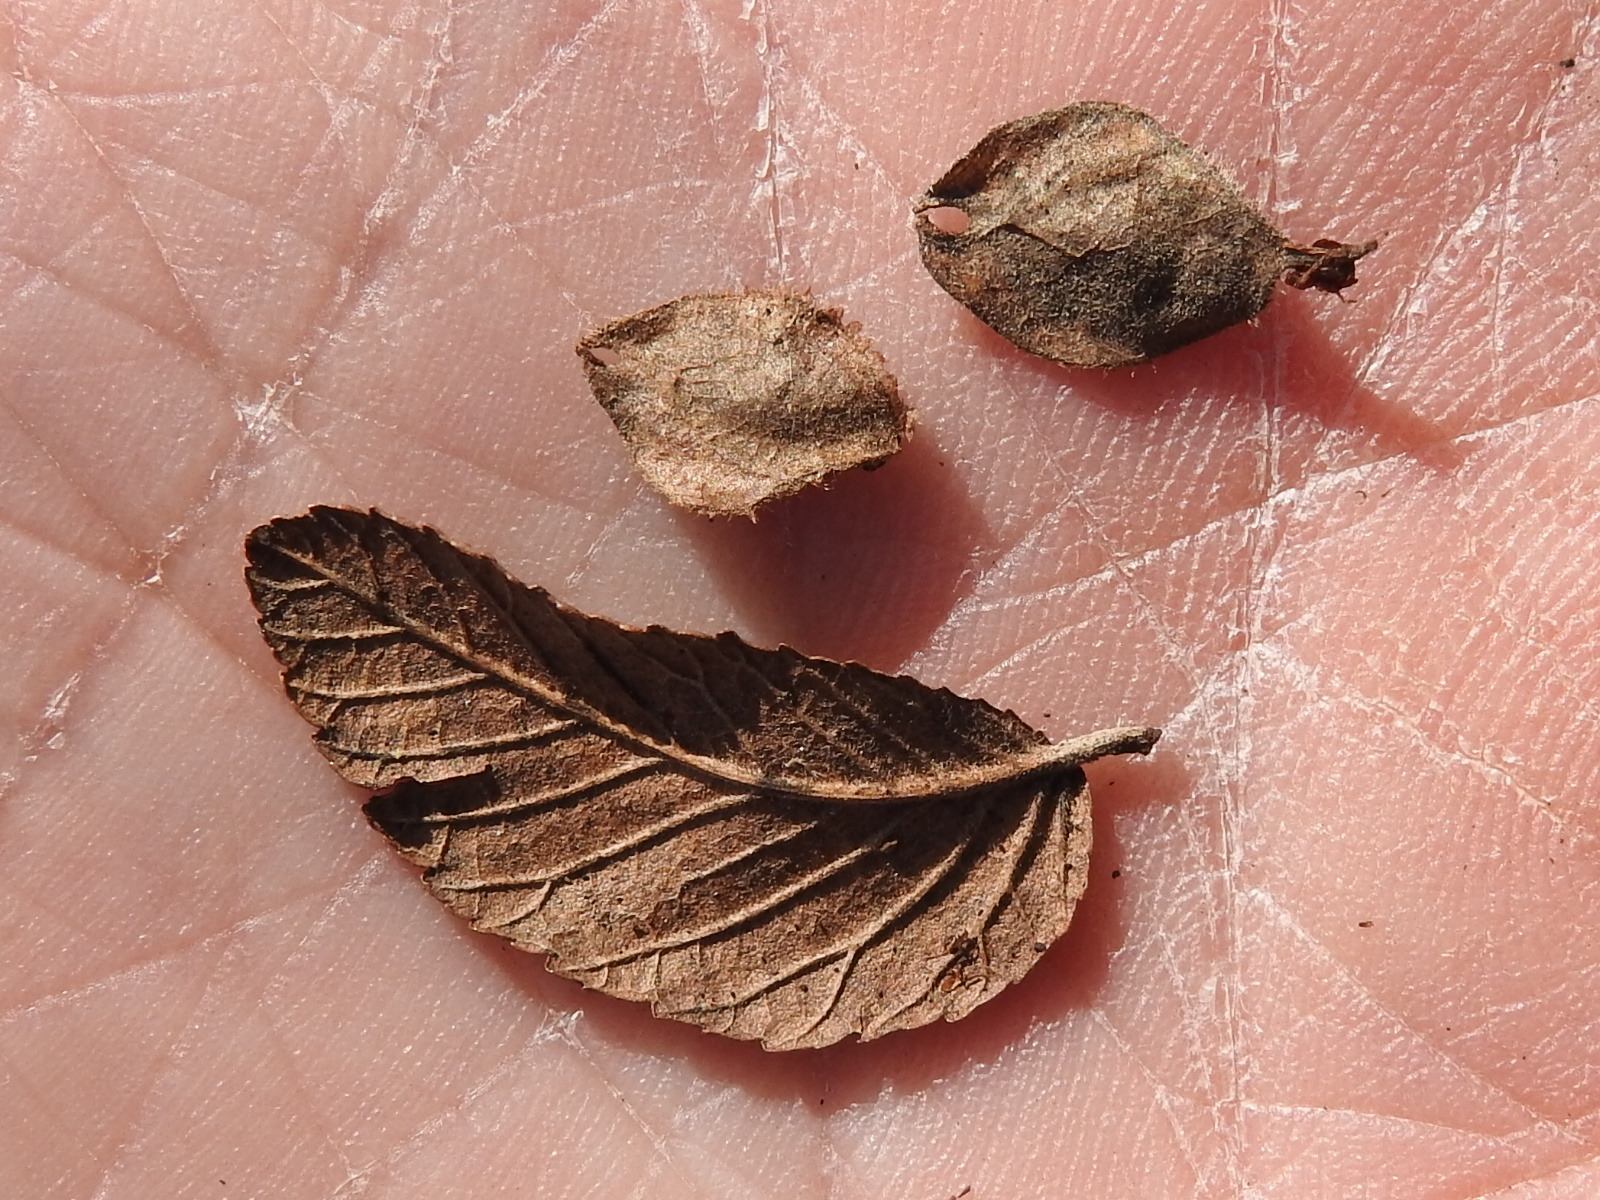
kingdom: Plantae
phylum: Tracheophyta
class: Magnoliopsida
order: Rosales
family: Ulmaceae
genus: Ulmus
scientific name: Ulmus crassifolia
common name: Basket elm
